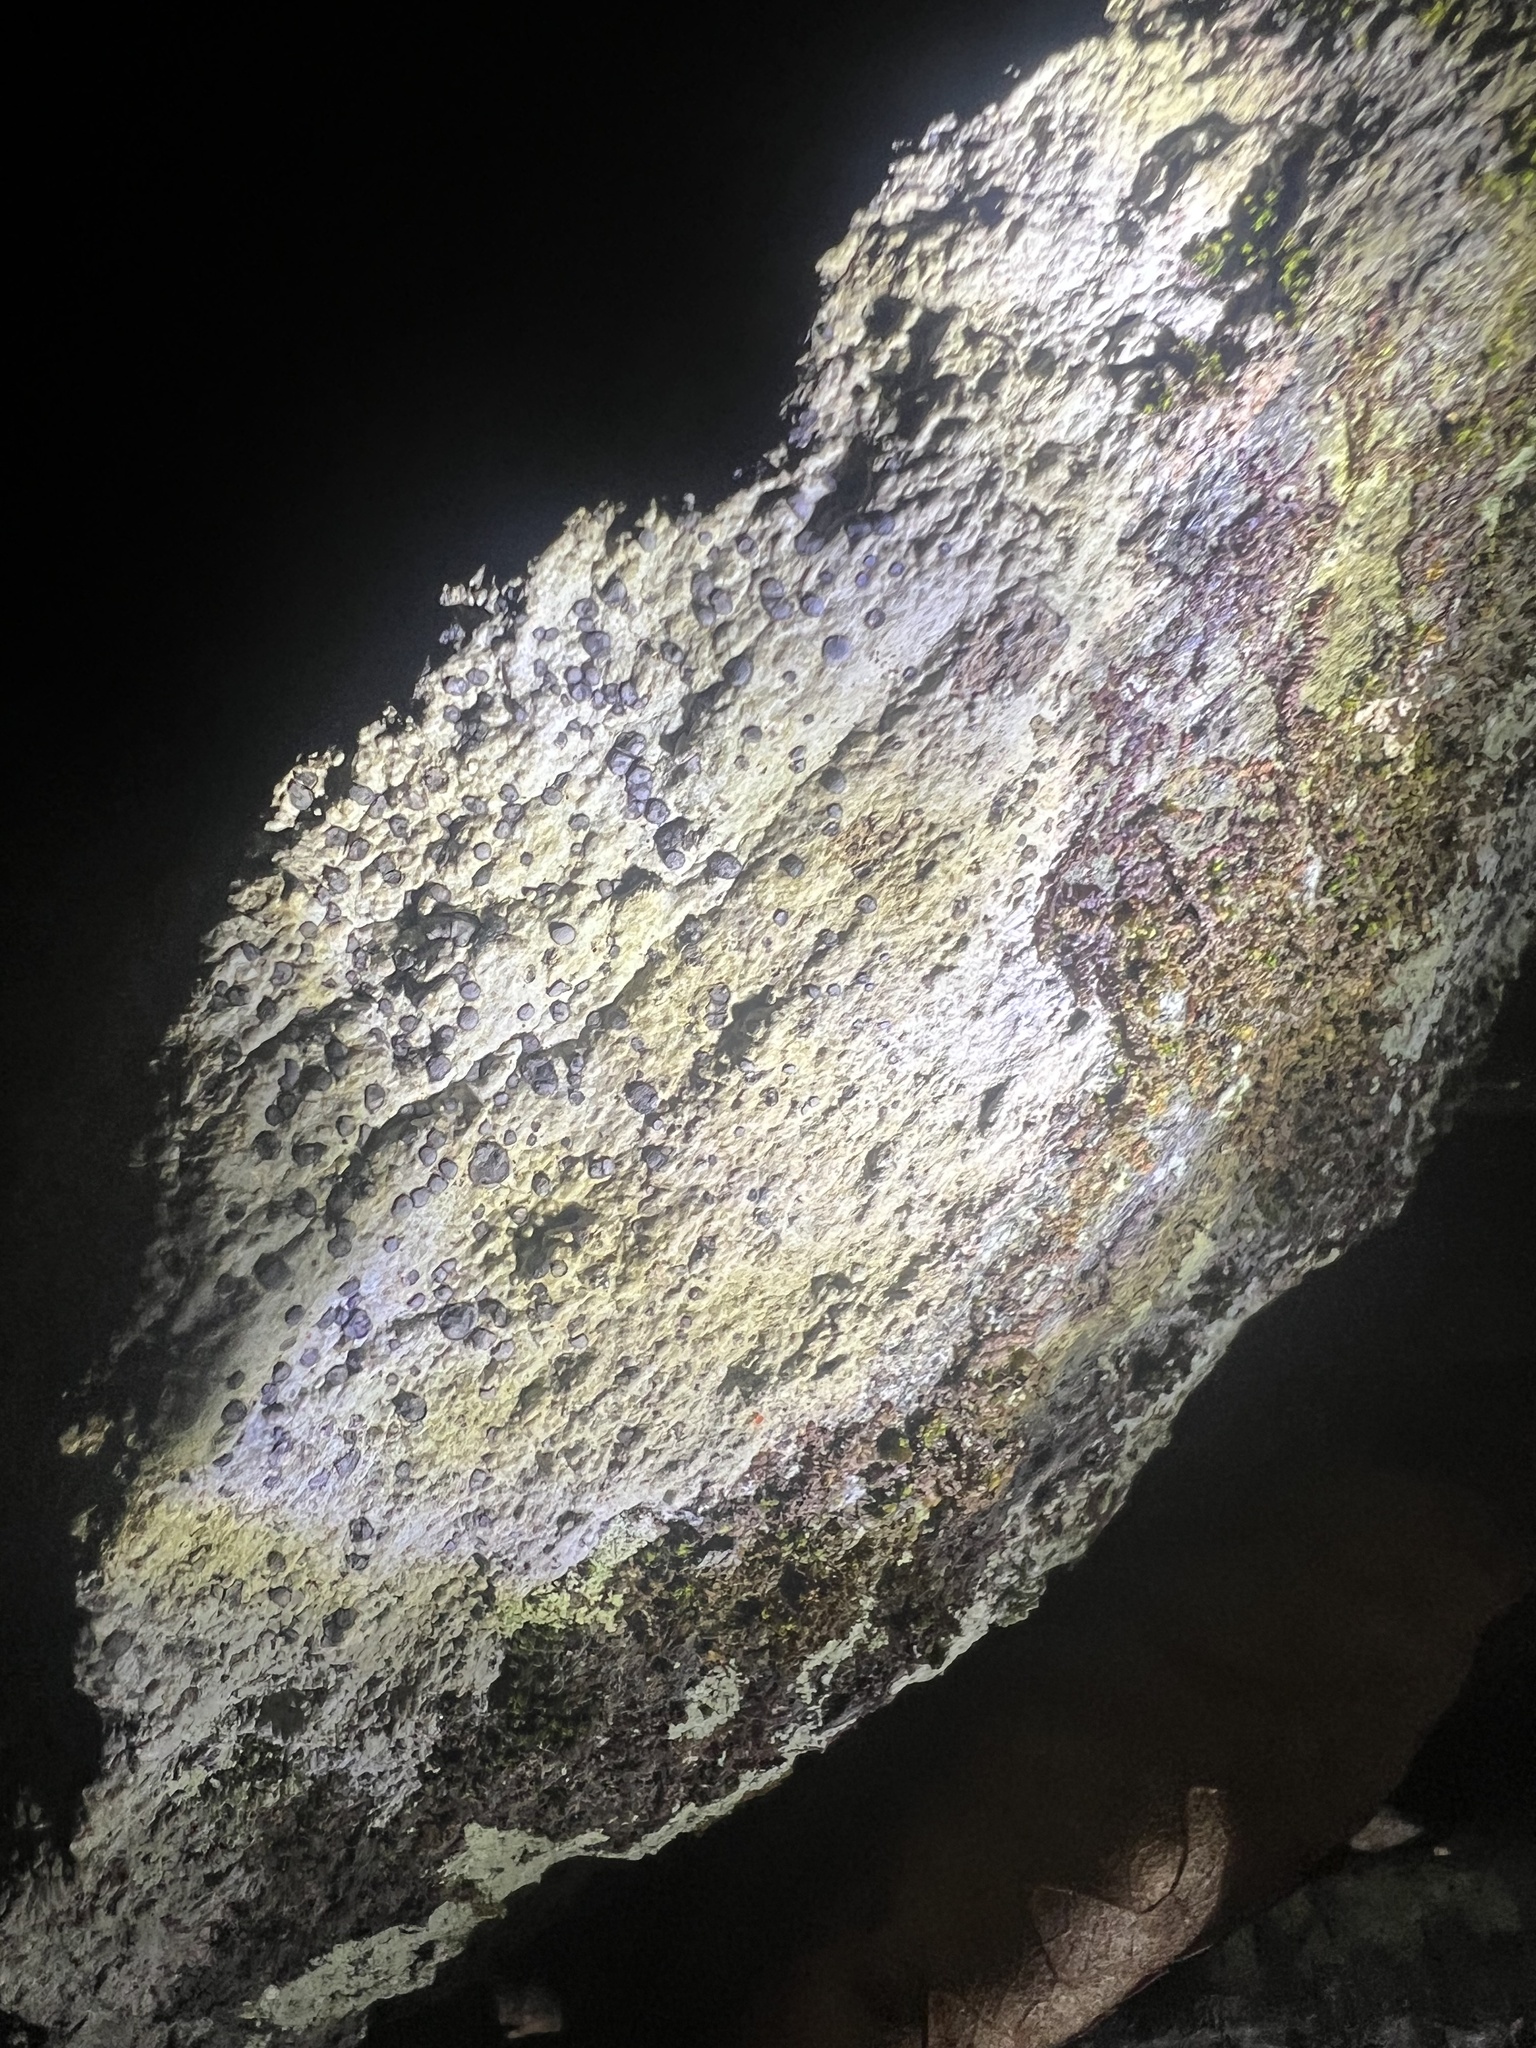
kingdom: Fungi
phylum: Ascomycota
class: Lecanoromycetes
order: Lecideales
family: Lecideaceae
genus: Porpidia
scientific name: Porpidia albocaerulescens
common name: Smokey-eyed boulder lichen
